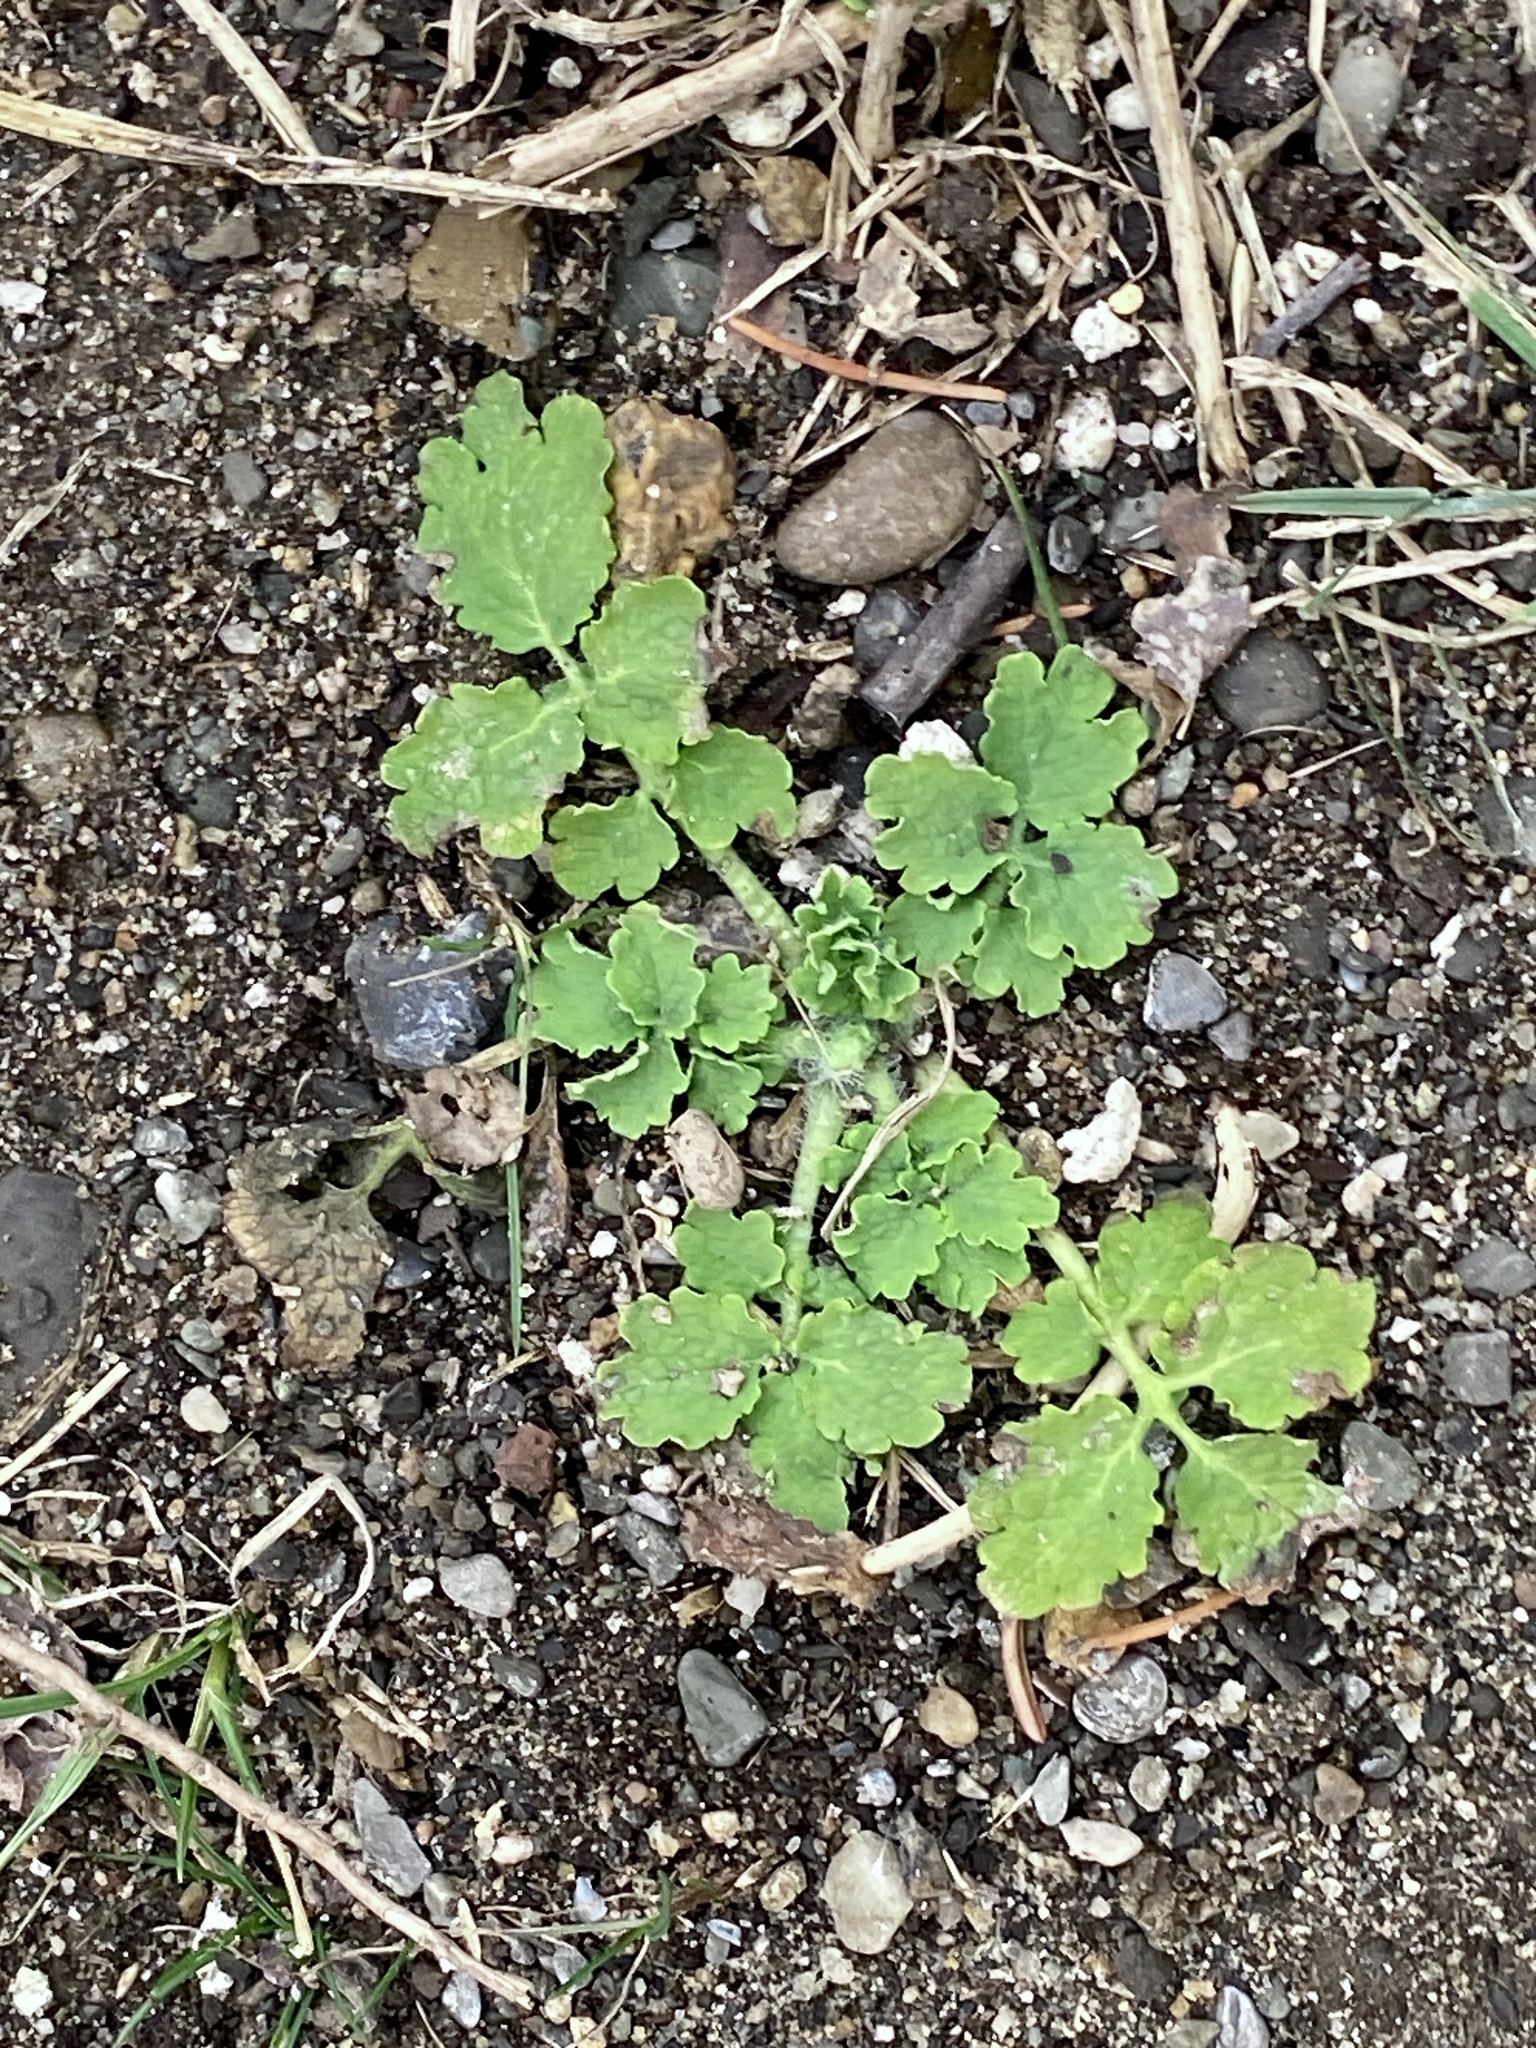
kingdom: Plantae
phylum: Tracheophyta
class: Magnoliopsida
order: Ranunculales
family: Papaveraceae
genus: Chelidonium
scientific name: Chelidonium majus
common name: Greater celandine
